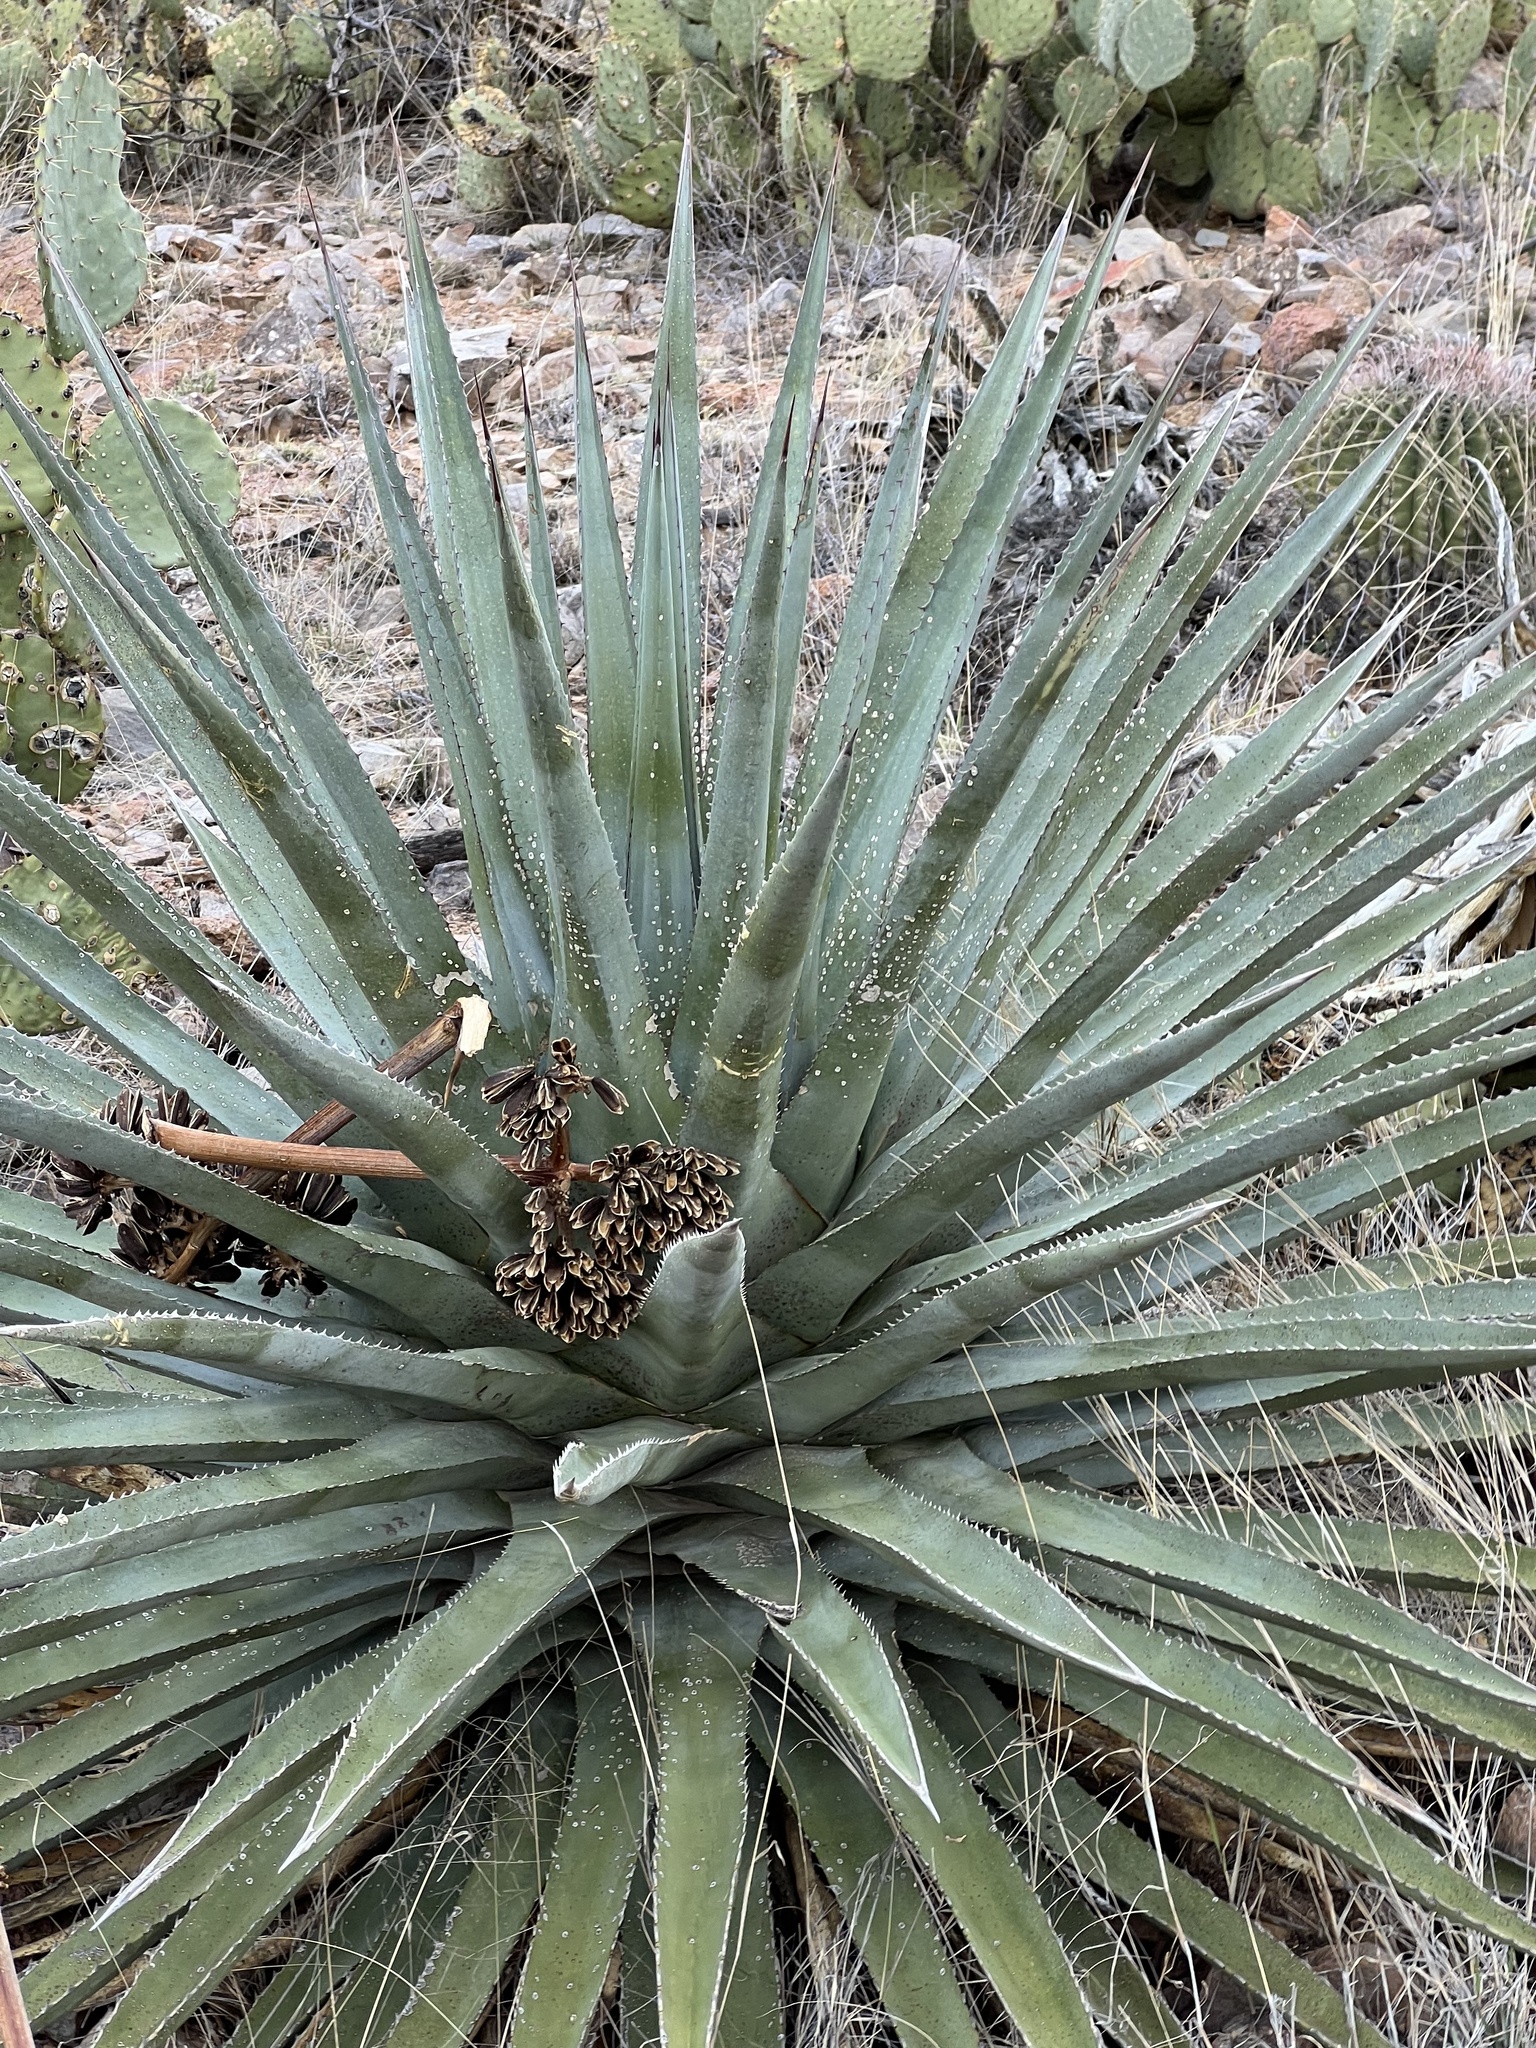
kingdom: Plantae
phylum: Tracheophyta
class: Liliopsida
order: Asparagales
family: Asparagaceae
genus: Agave
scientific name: Agave palmeri
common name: Palmer agave
